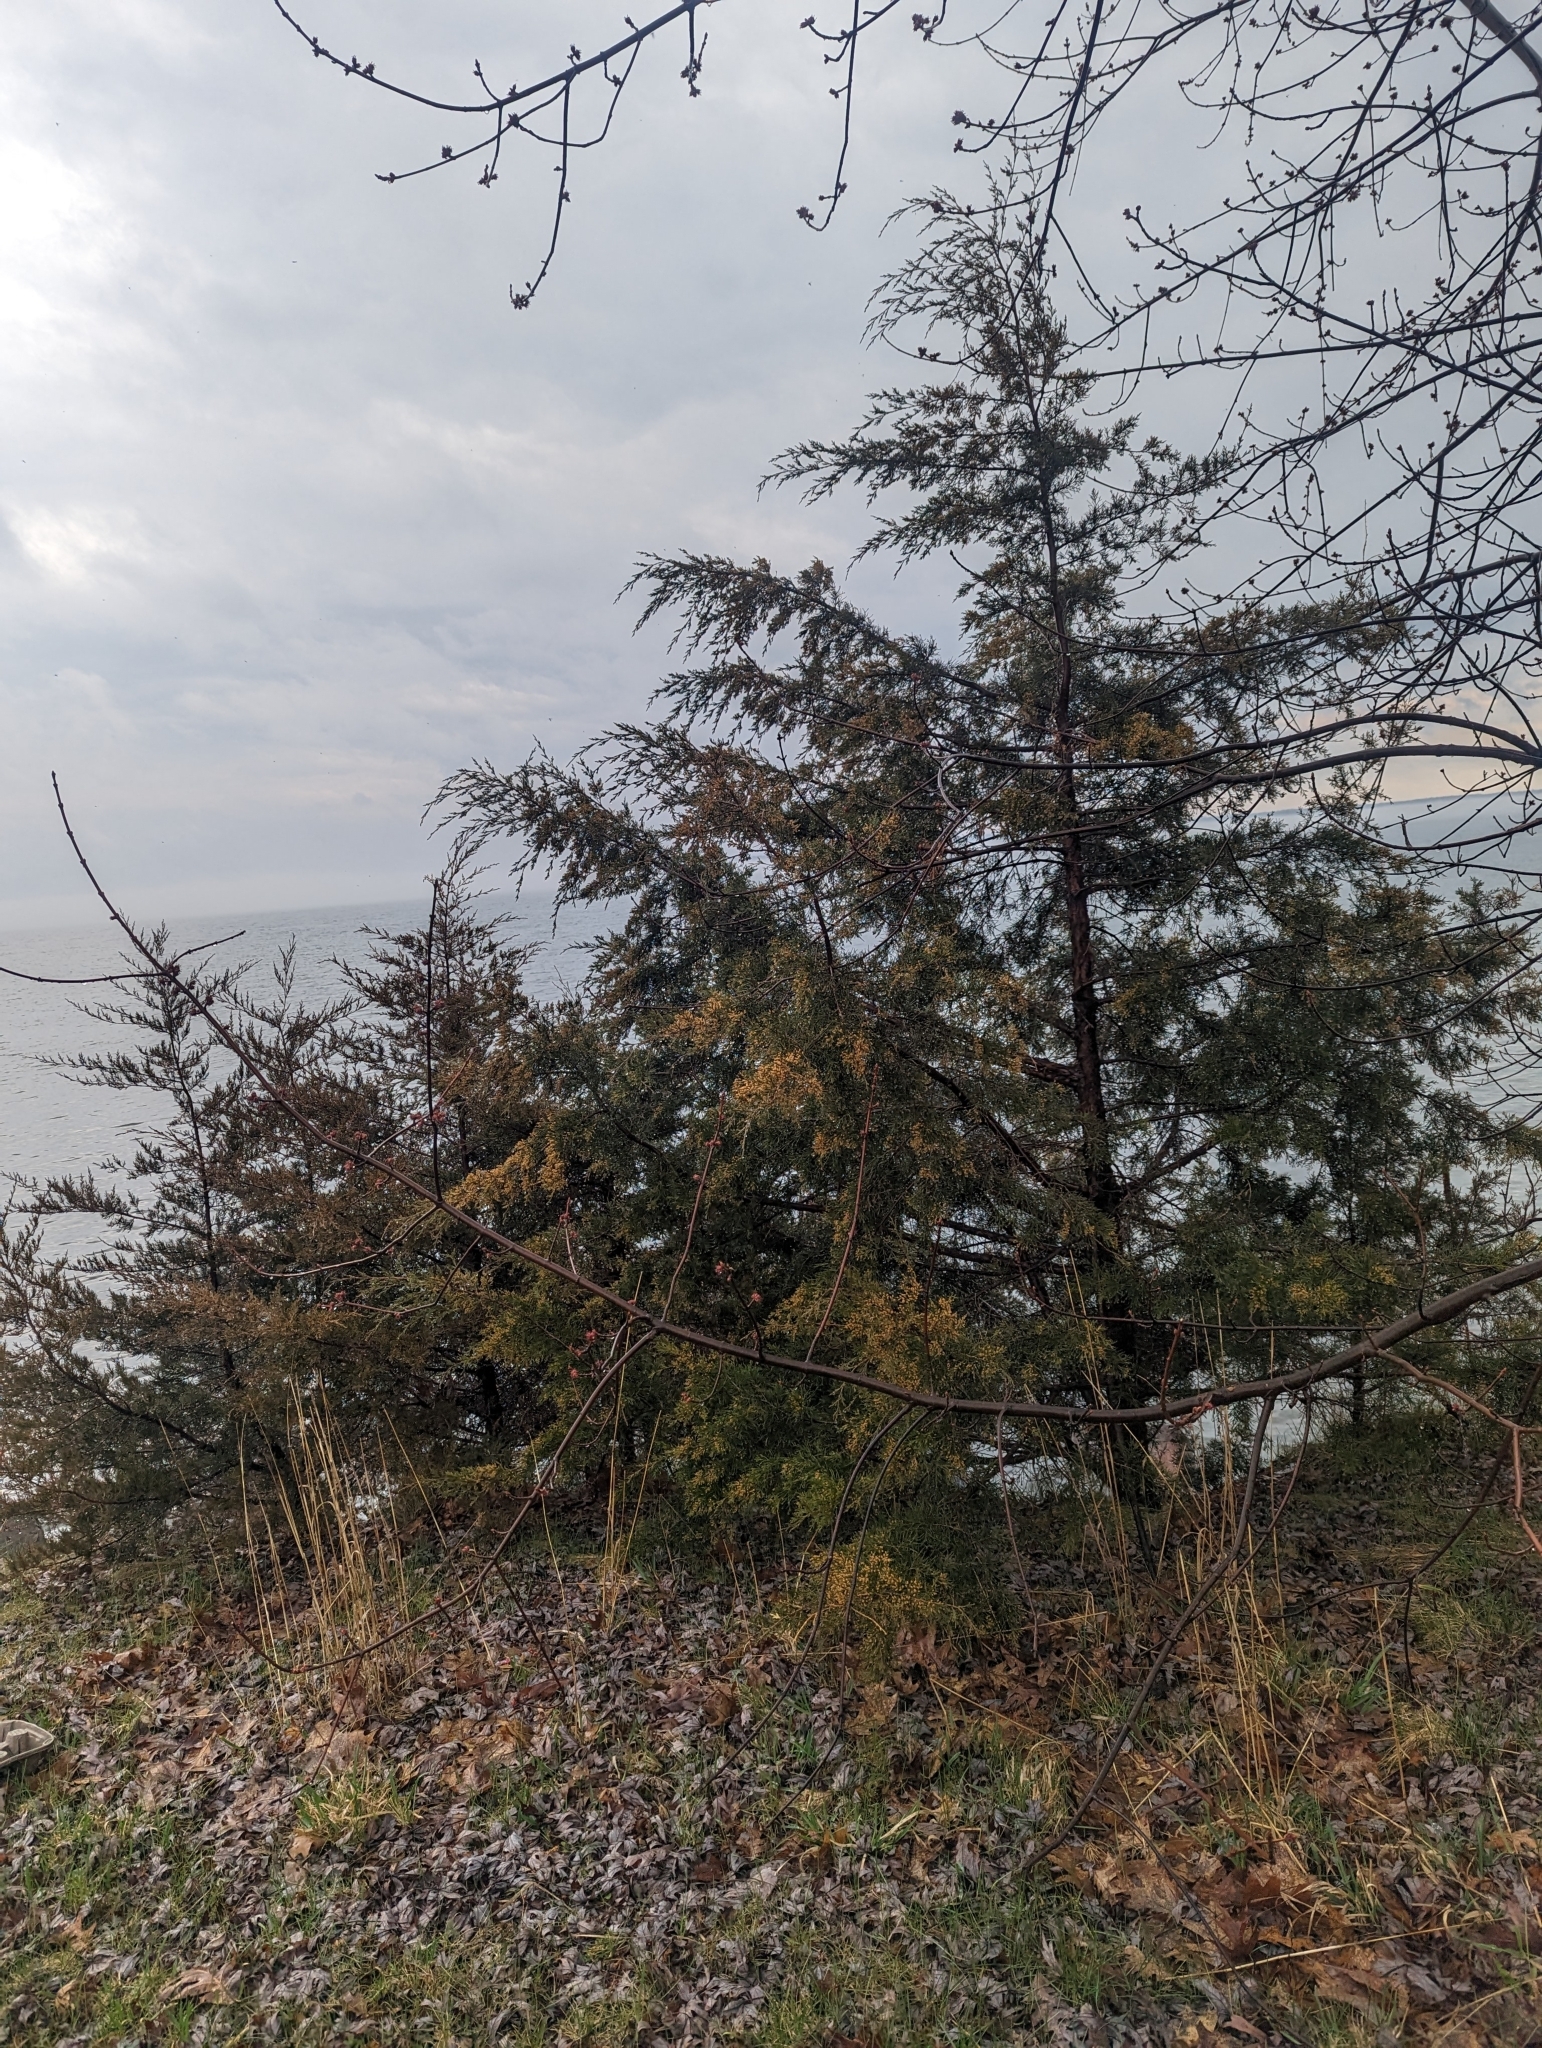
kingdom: Plantae
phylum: Tracheophyta
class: Pinopsida
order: Pinales
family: Cupressaceae
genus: Juniperus
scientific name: Juniperus virginiana
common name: Red juniper
